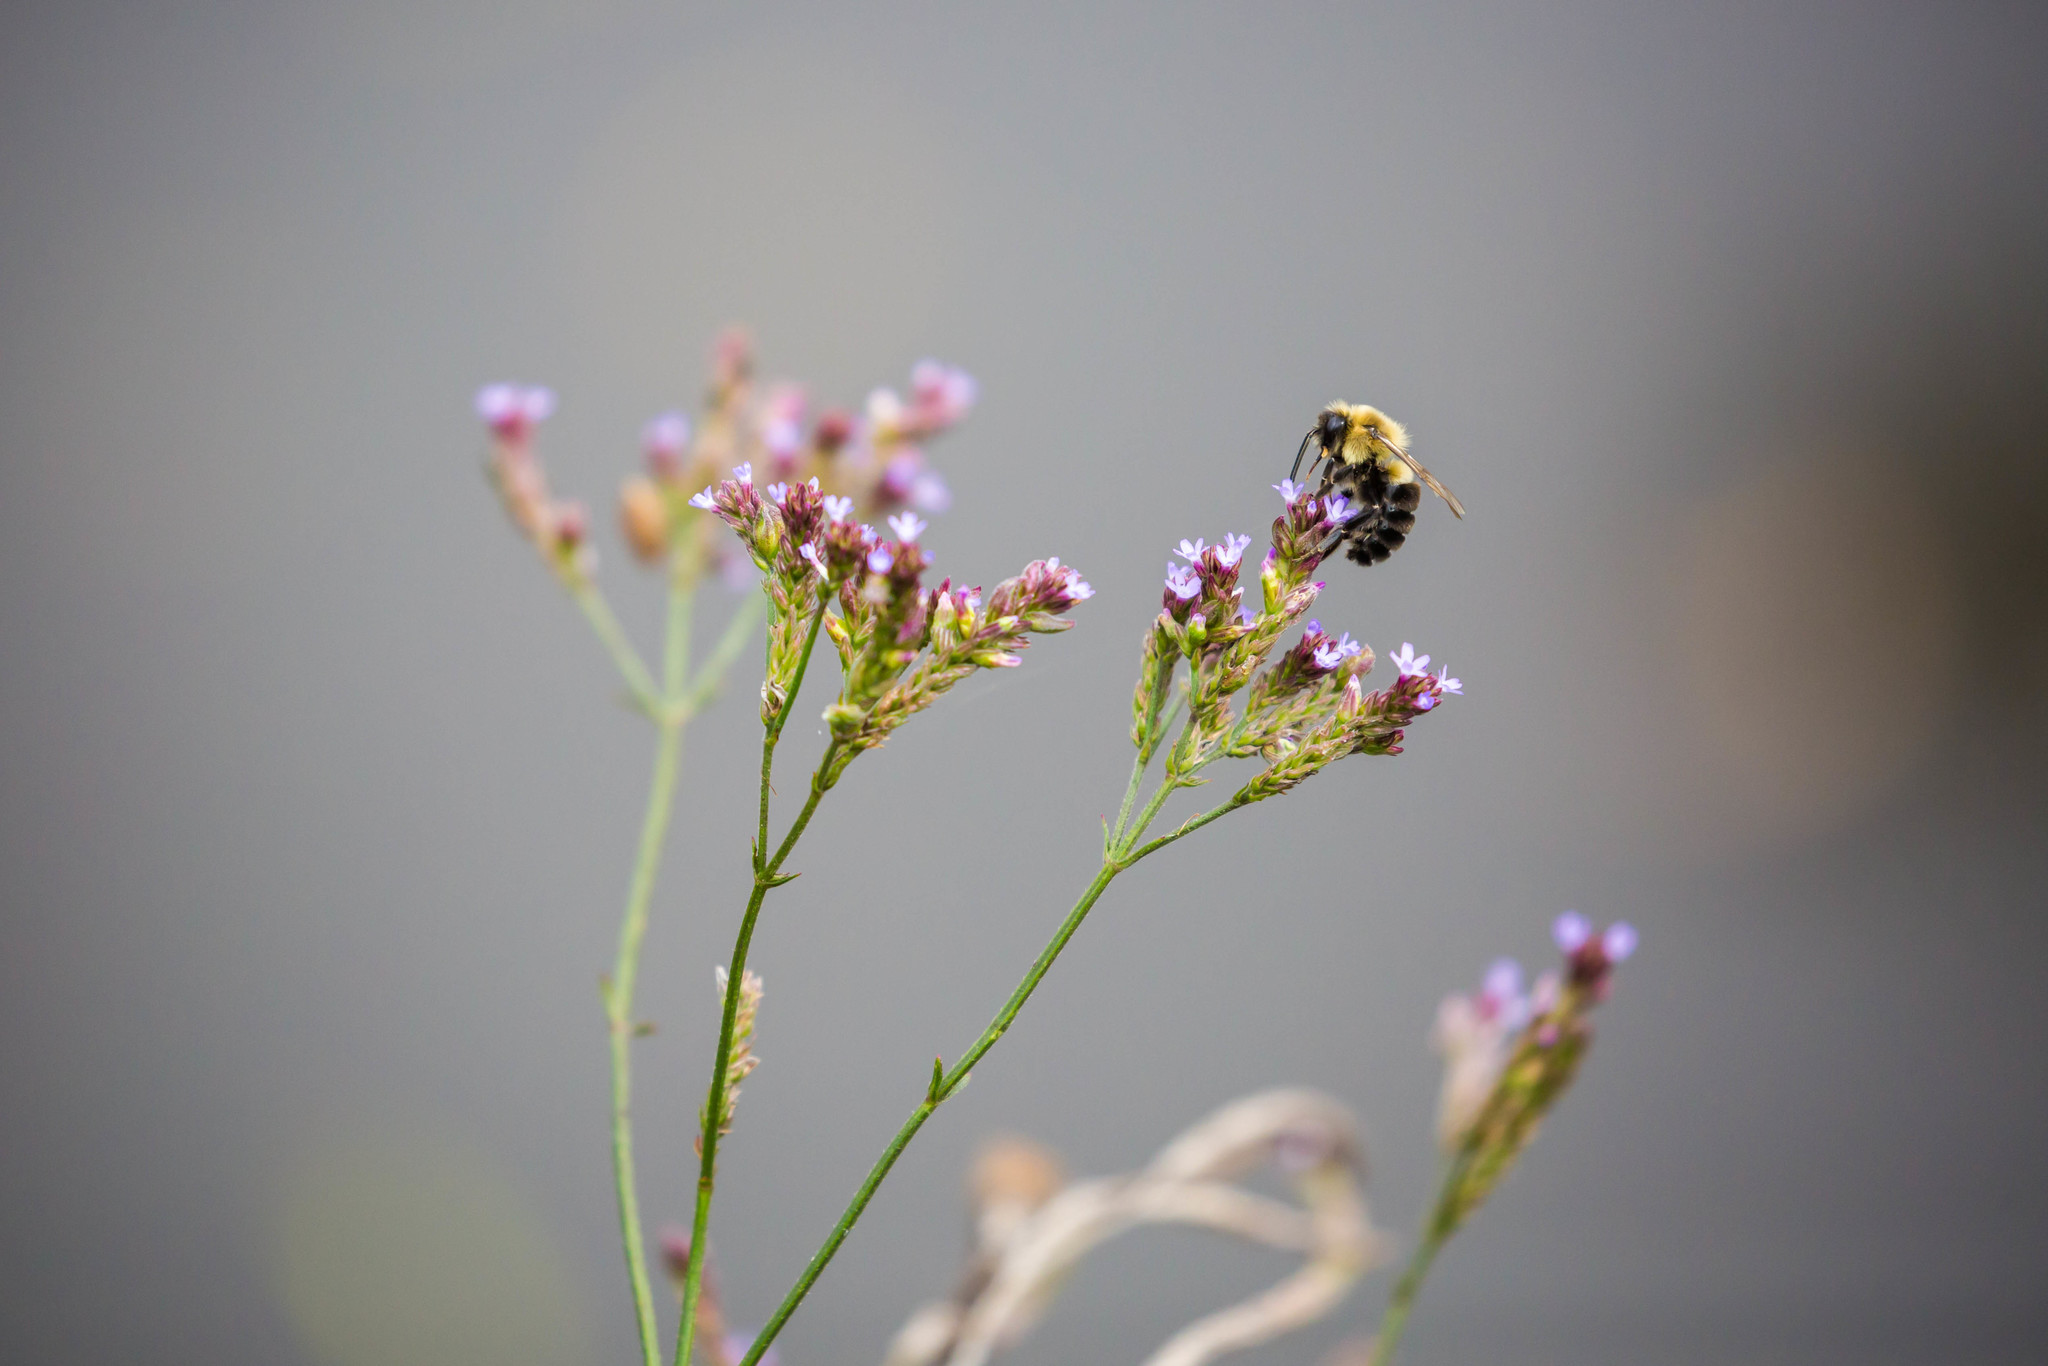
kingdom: Animalia
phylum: Arthropoda
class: Insecta
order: Hymenoptera
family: Apidae
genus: Bombus
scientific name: Bombus impatiens
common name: Common eastern bumble bee
